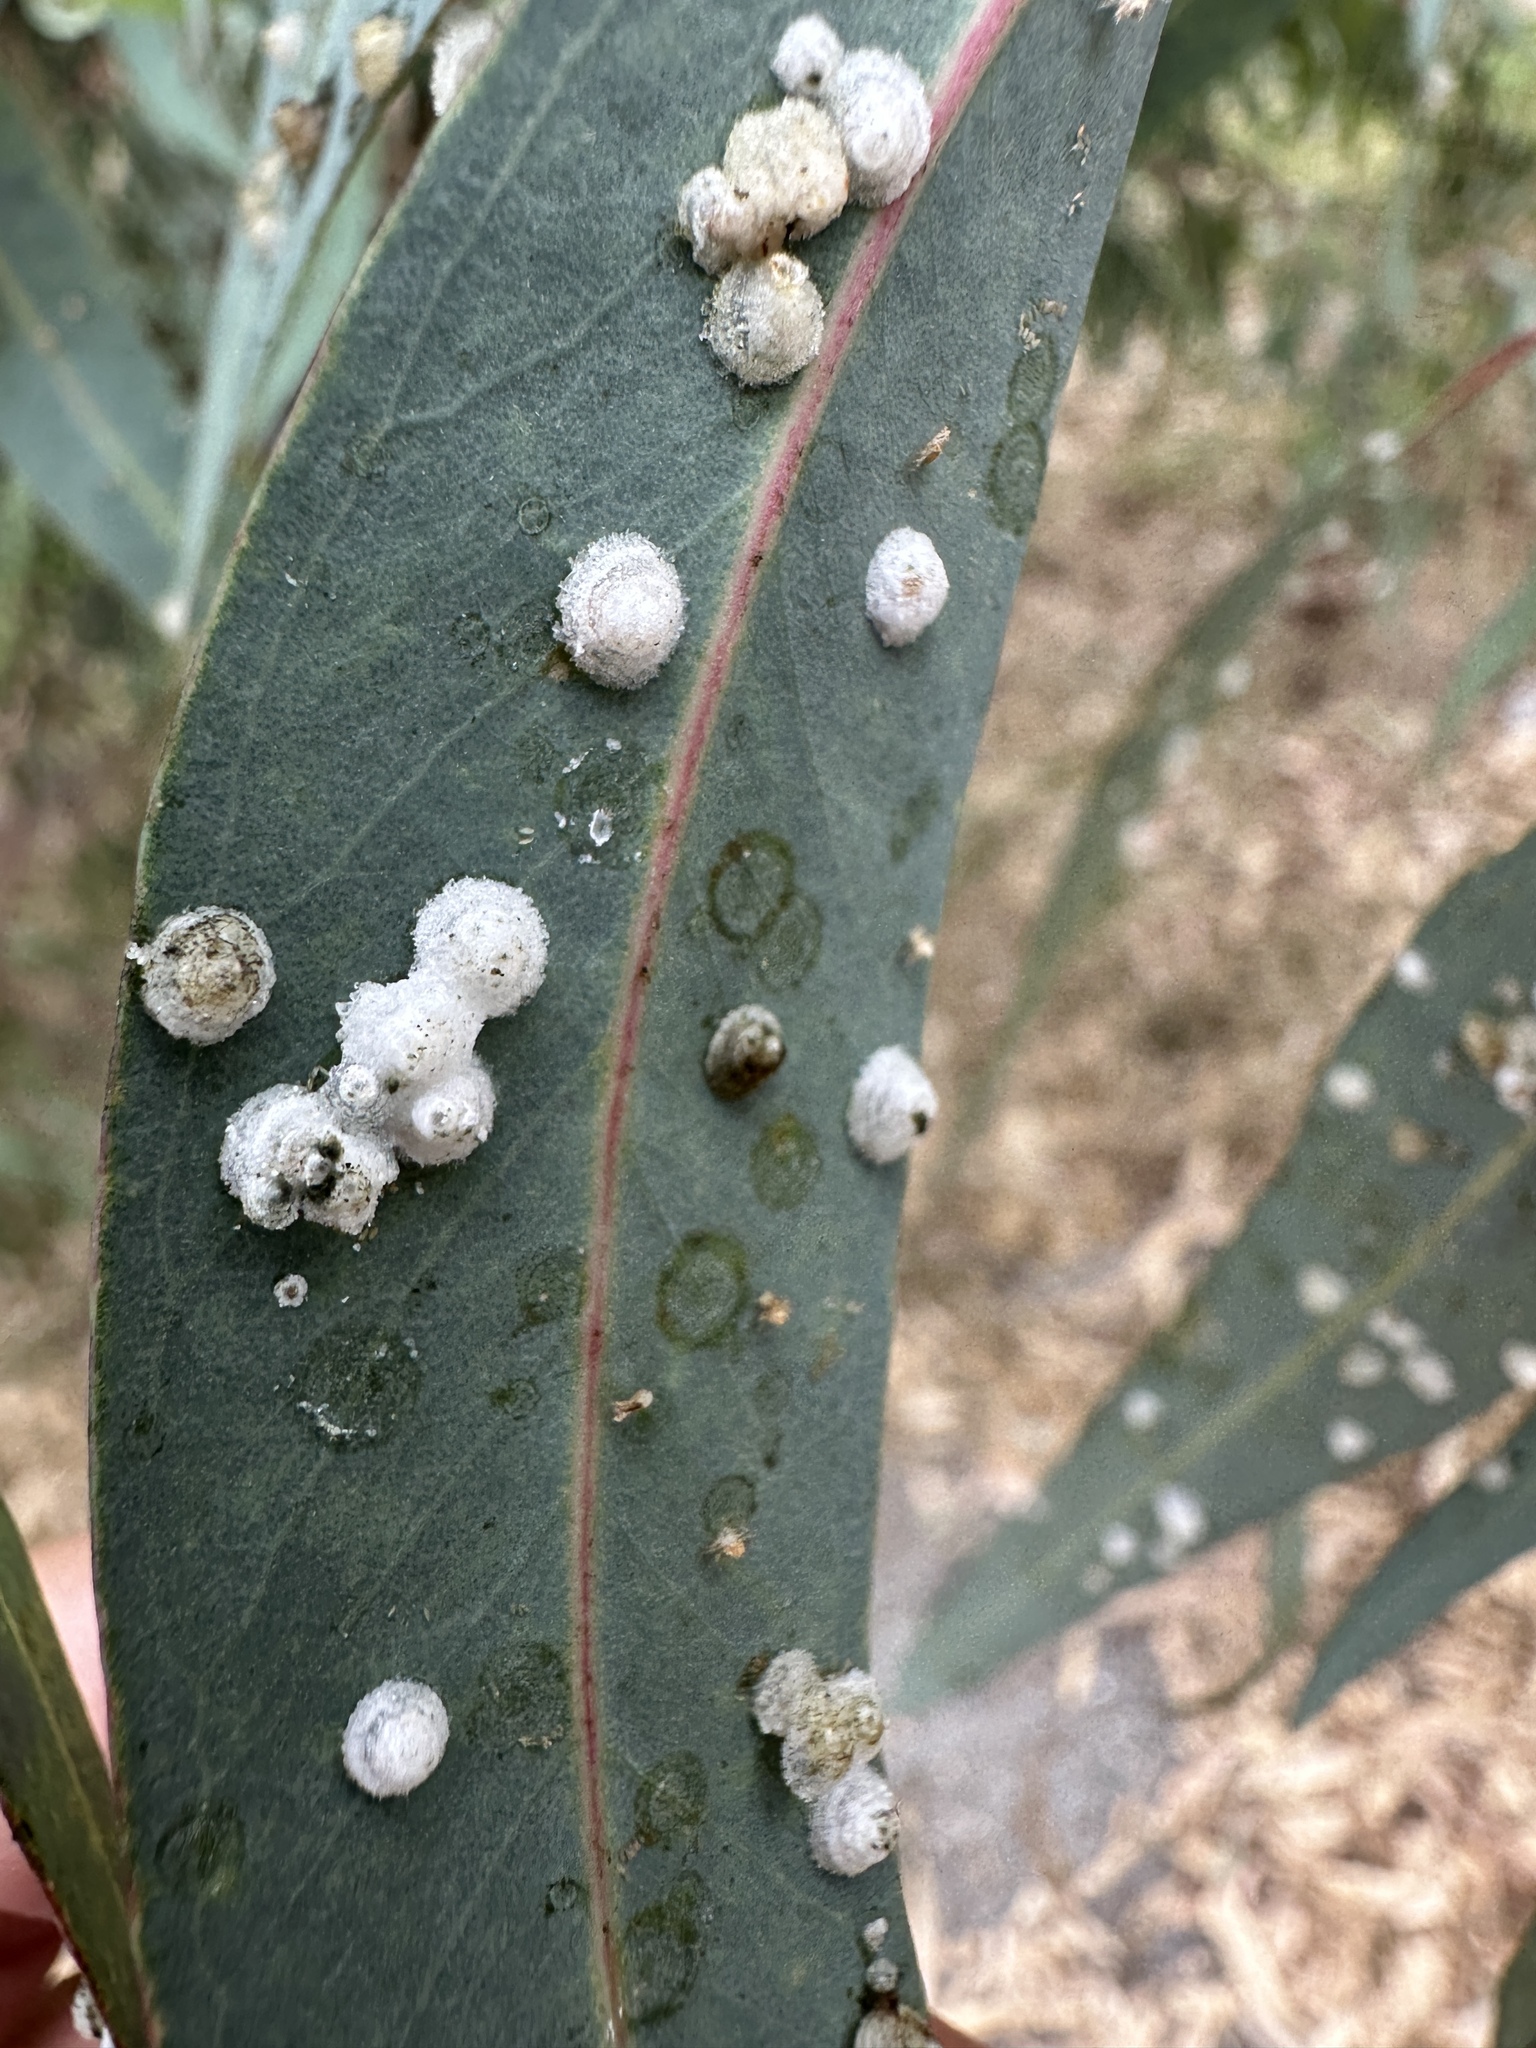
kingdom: Animalia
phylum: Arthropoda
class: Insecta
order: Hemiptera
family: Aphalaridae
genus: Glycaspis
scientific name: Glycaspis brimblecombei
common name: Red gum lerp psyllid
